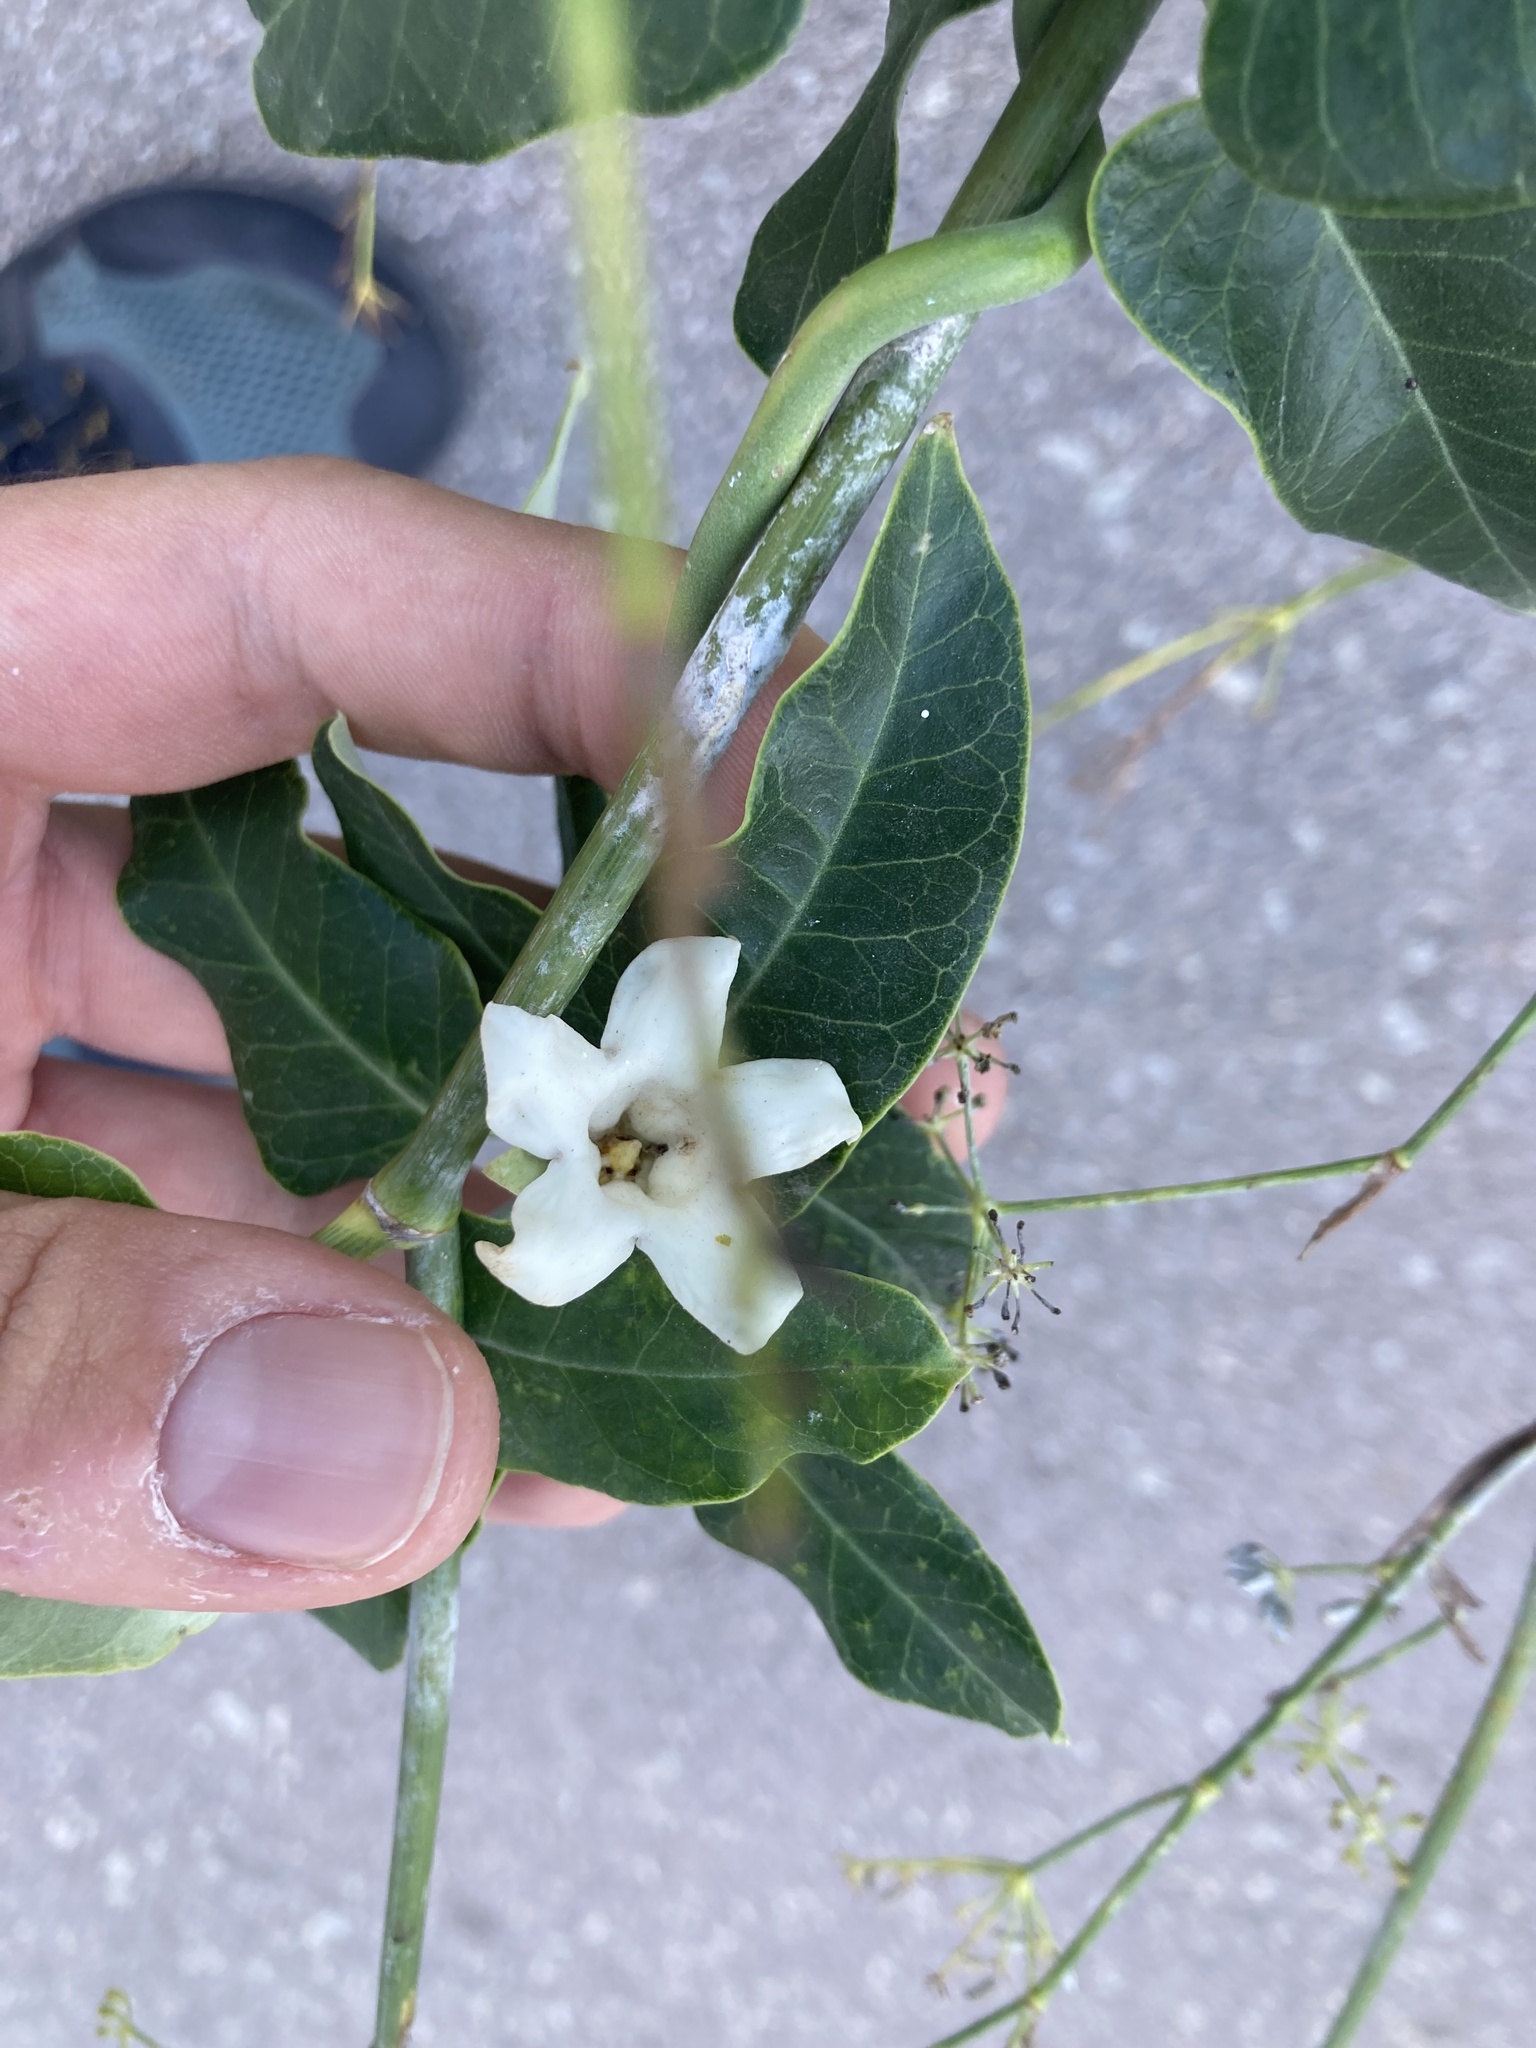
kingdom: Plantae
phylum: Tracheophyta
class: Magnoliopsida
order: Gentianales
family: Apocynaceae
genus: Araujia
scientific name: Araujia sericifera
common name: White bladderflower
